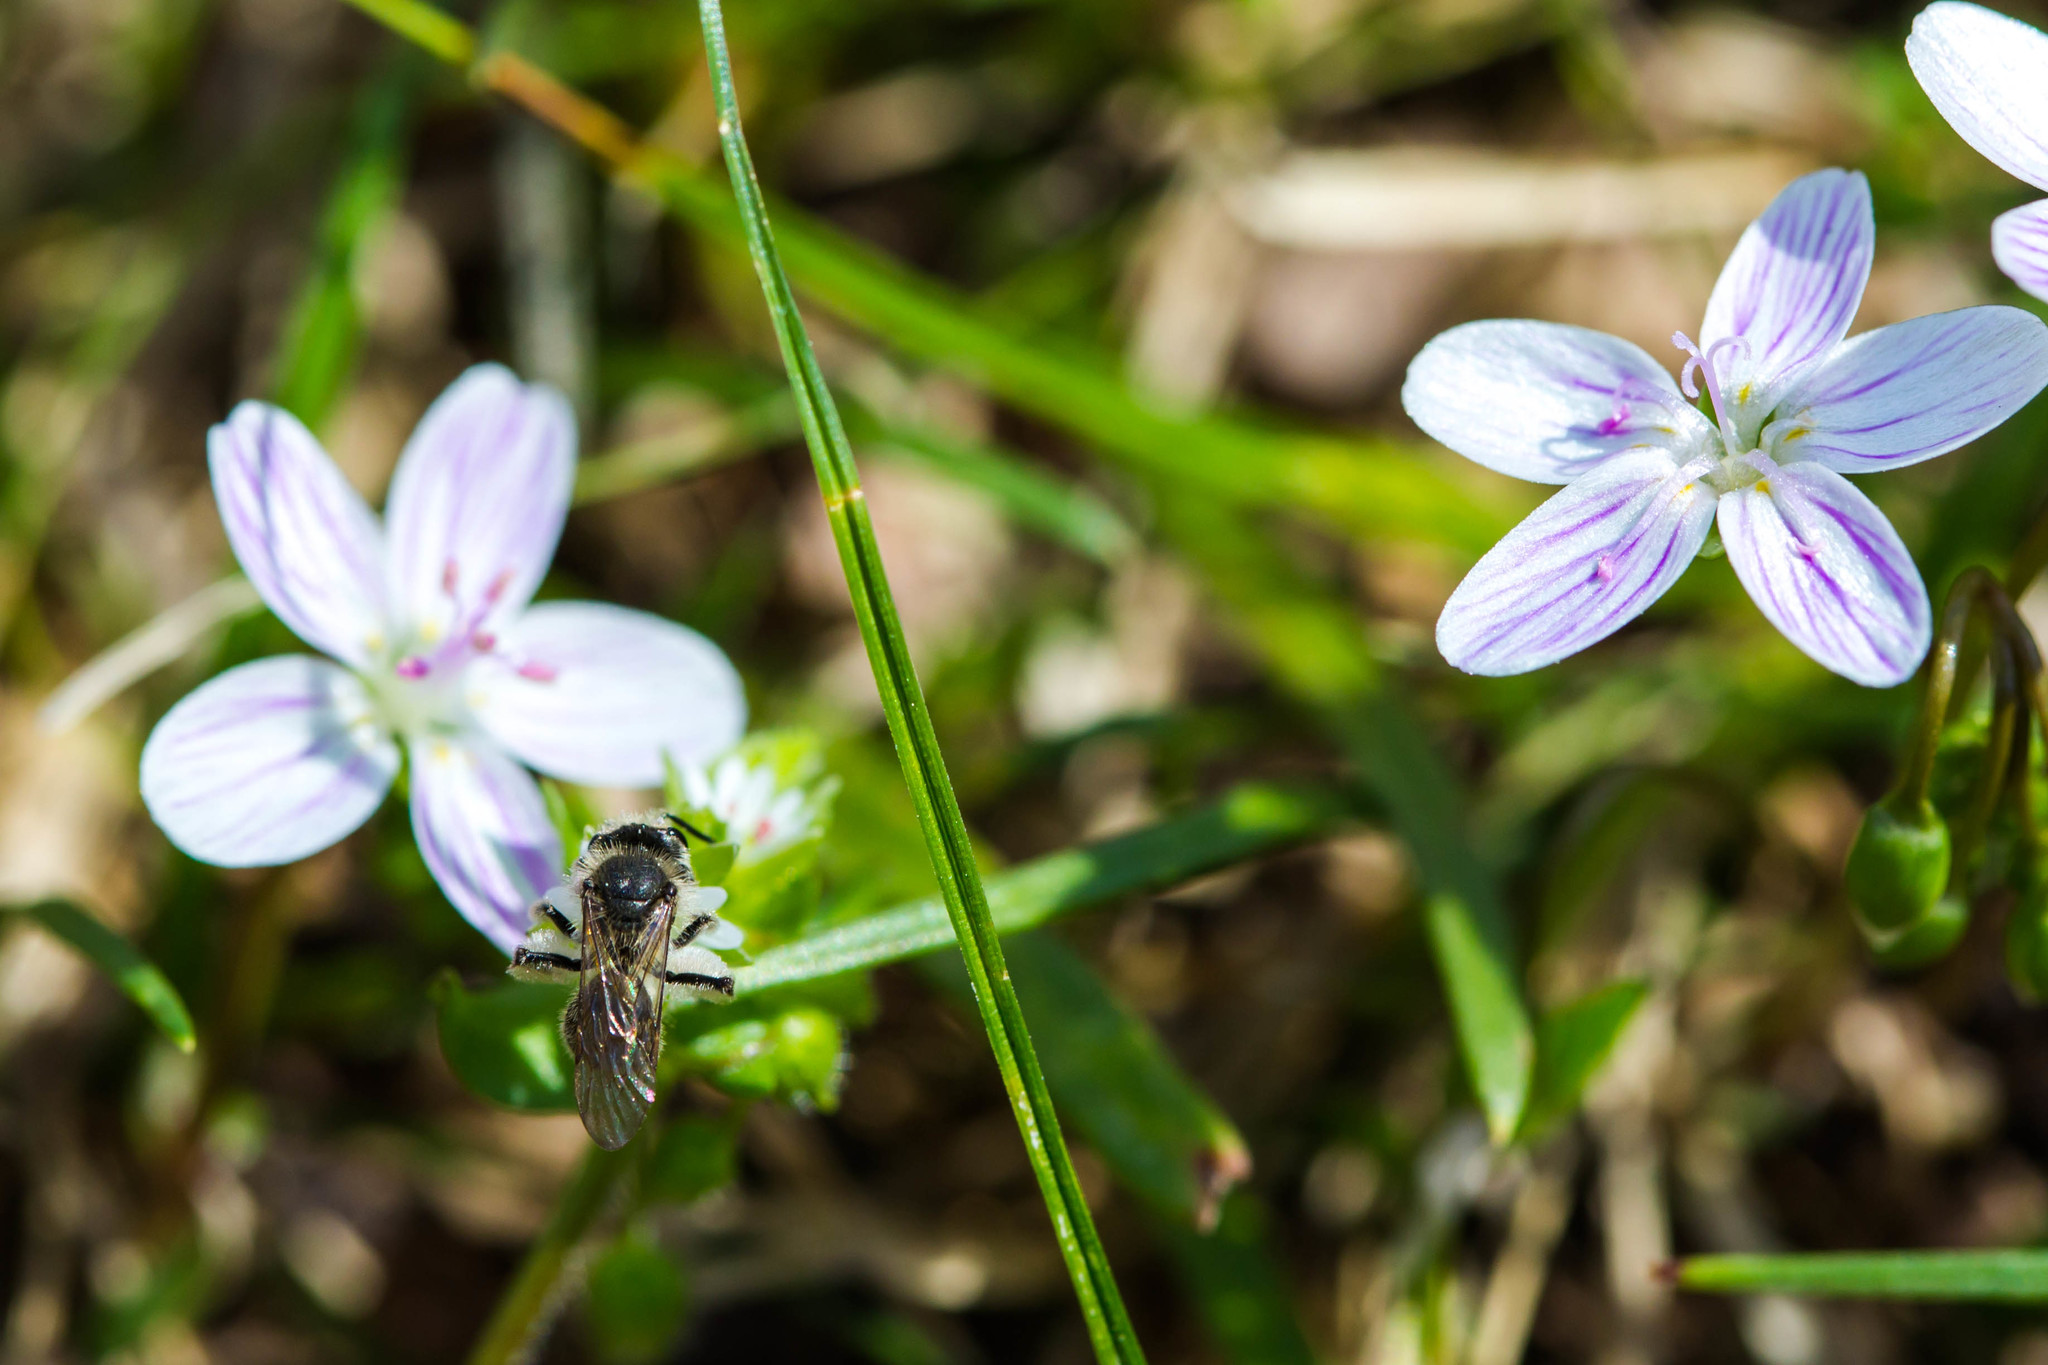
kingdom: Animalia
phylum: Arthropoda
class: Insecta
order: Hymenoptera
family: Andrenidae
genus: Andrena
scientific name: Andrena erigeniae
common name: Spring beauty miner
